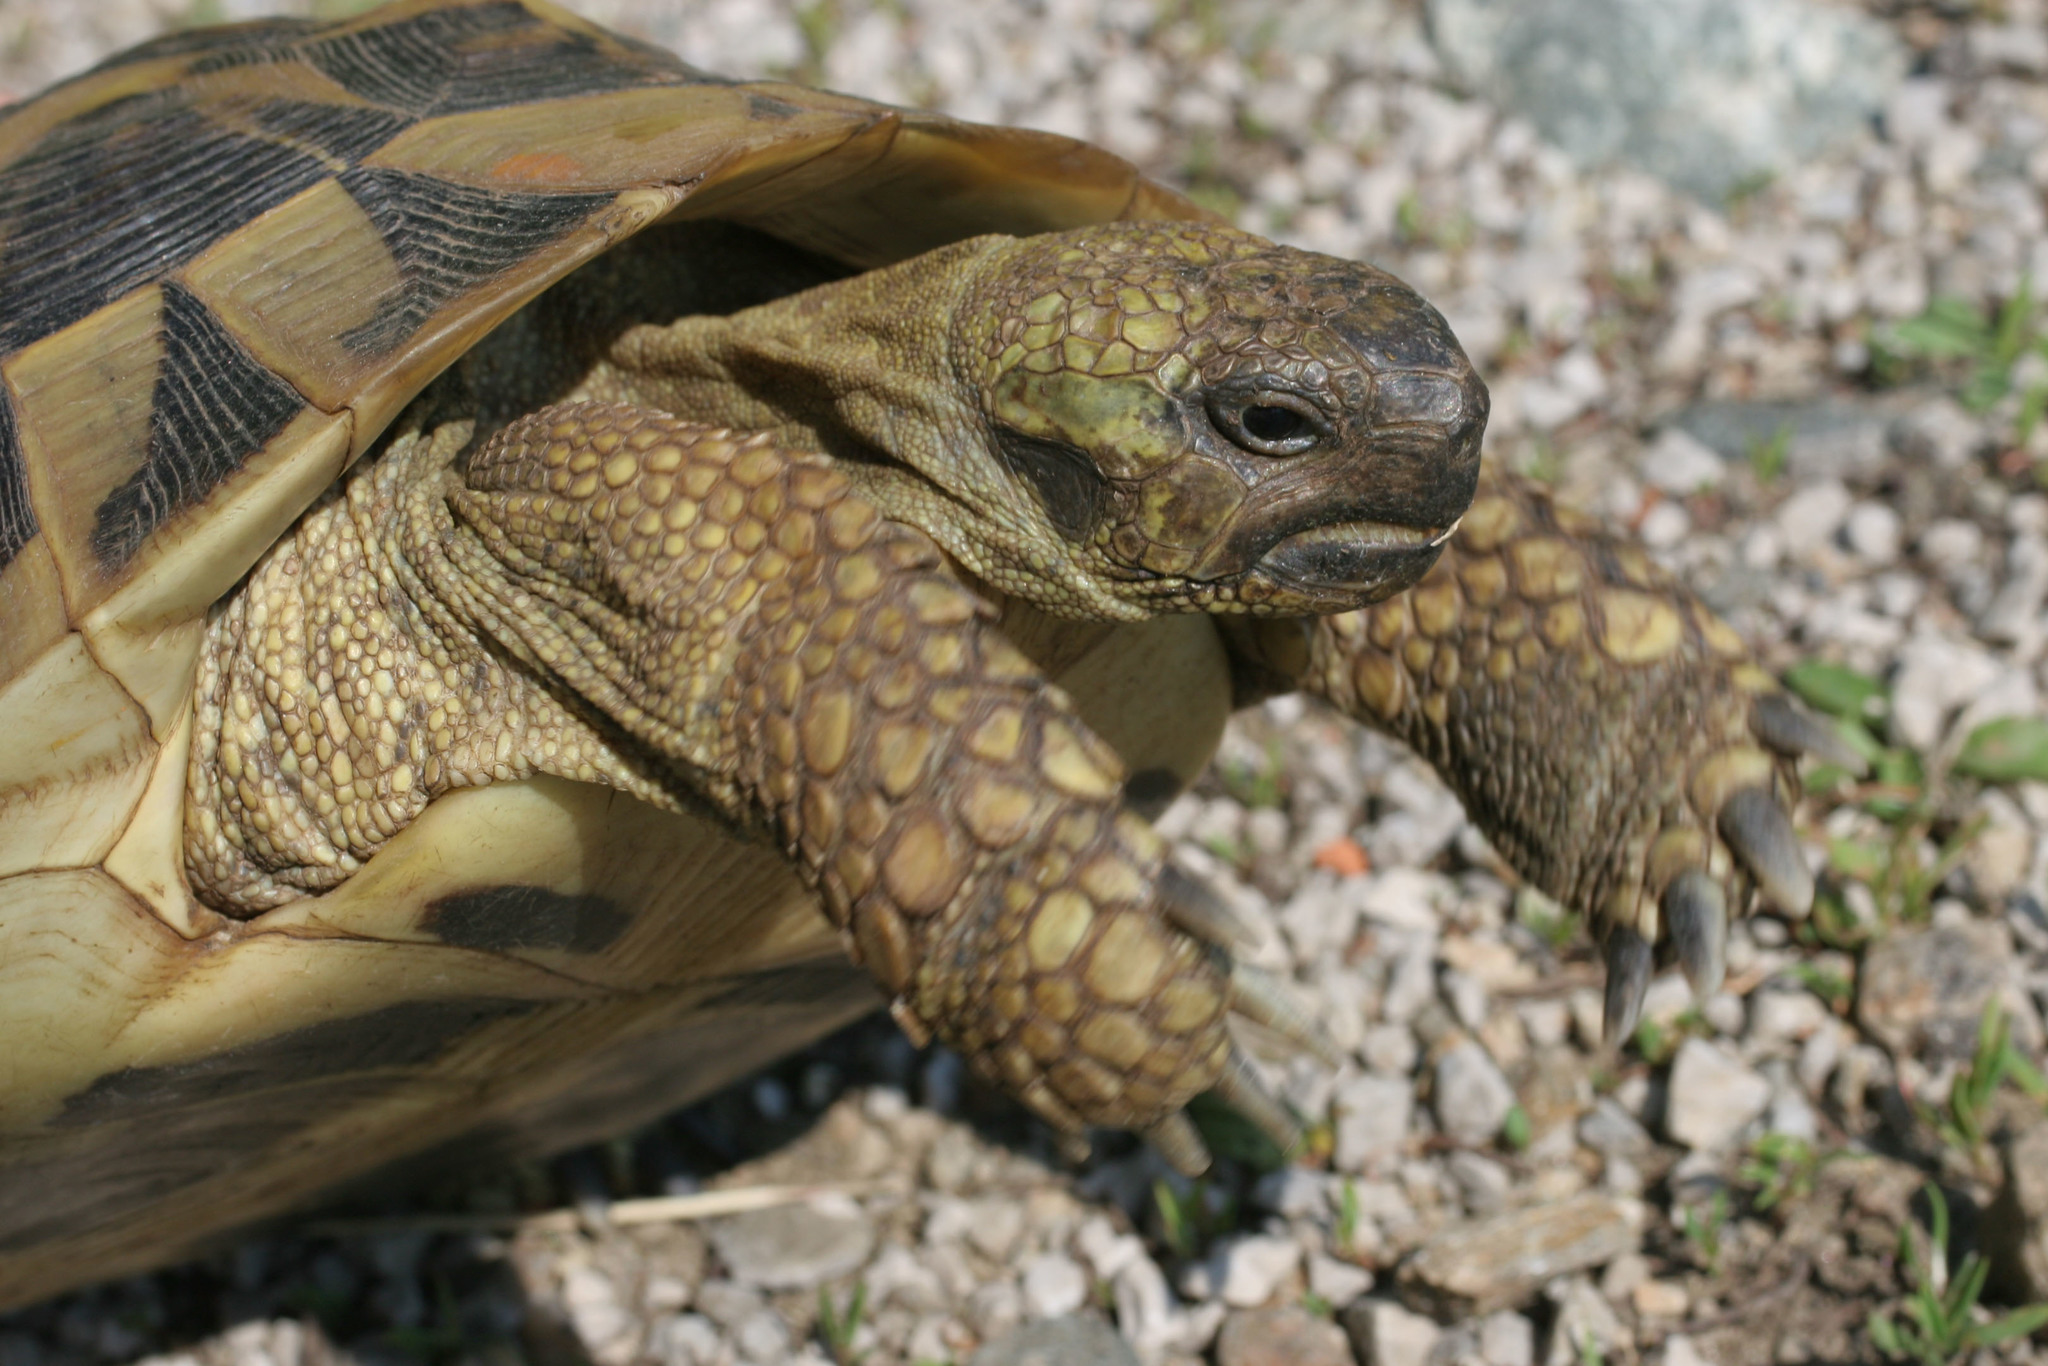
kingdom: Animalia
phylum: Chordata
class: Testudines
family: Testudinidae
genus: Testudo
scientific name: Testudo graeca
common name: Common tortoise
